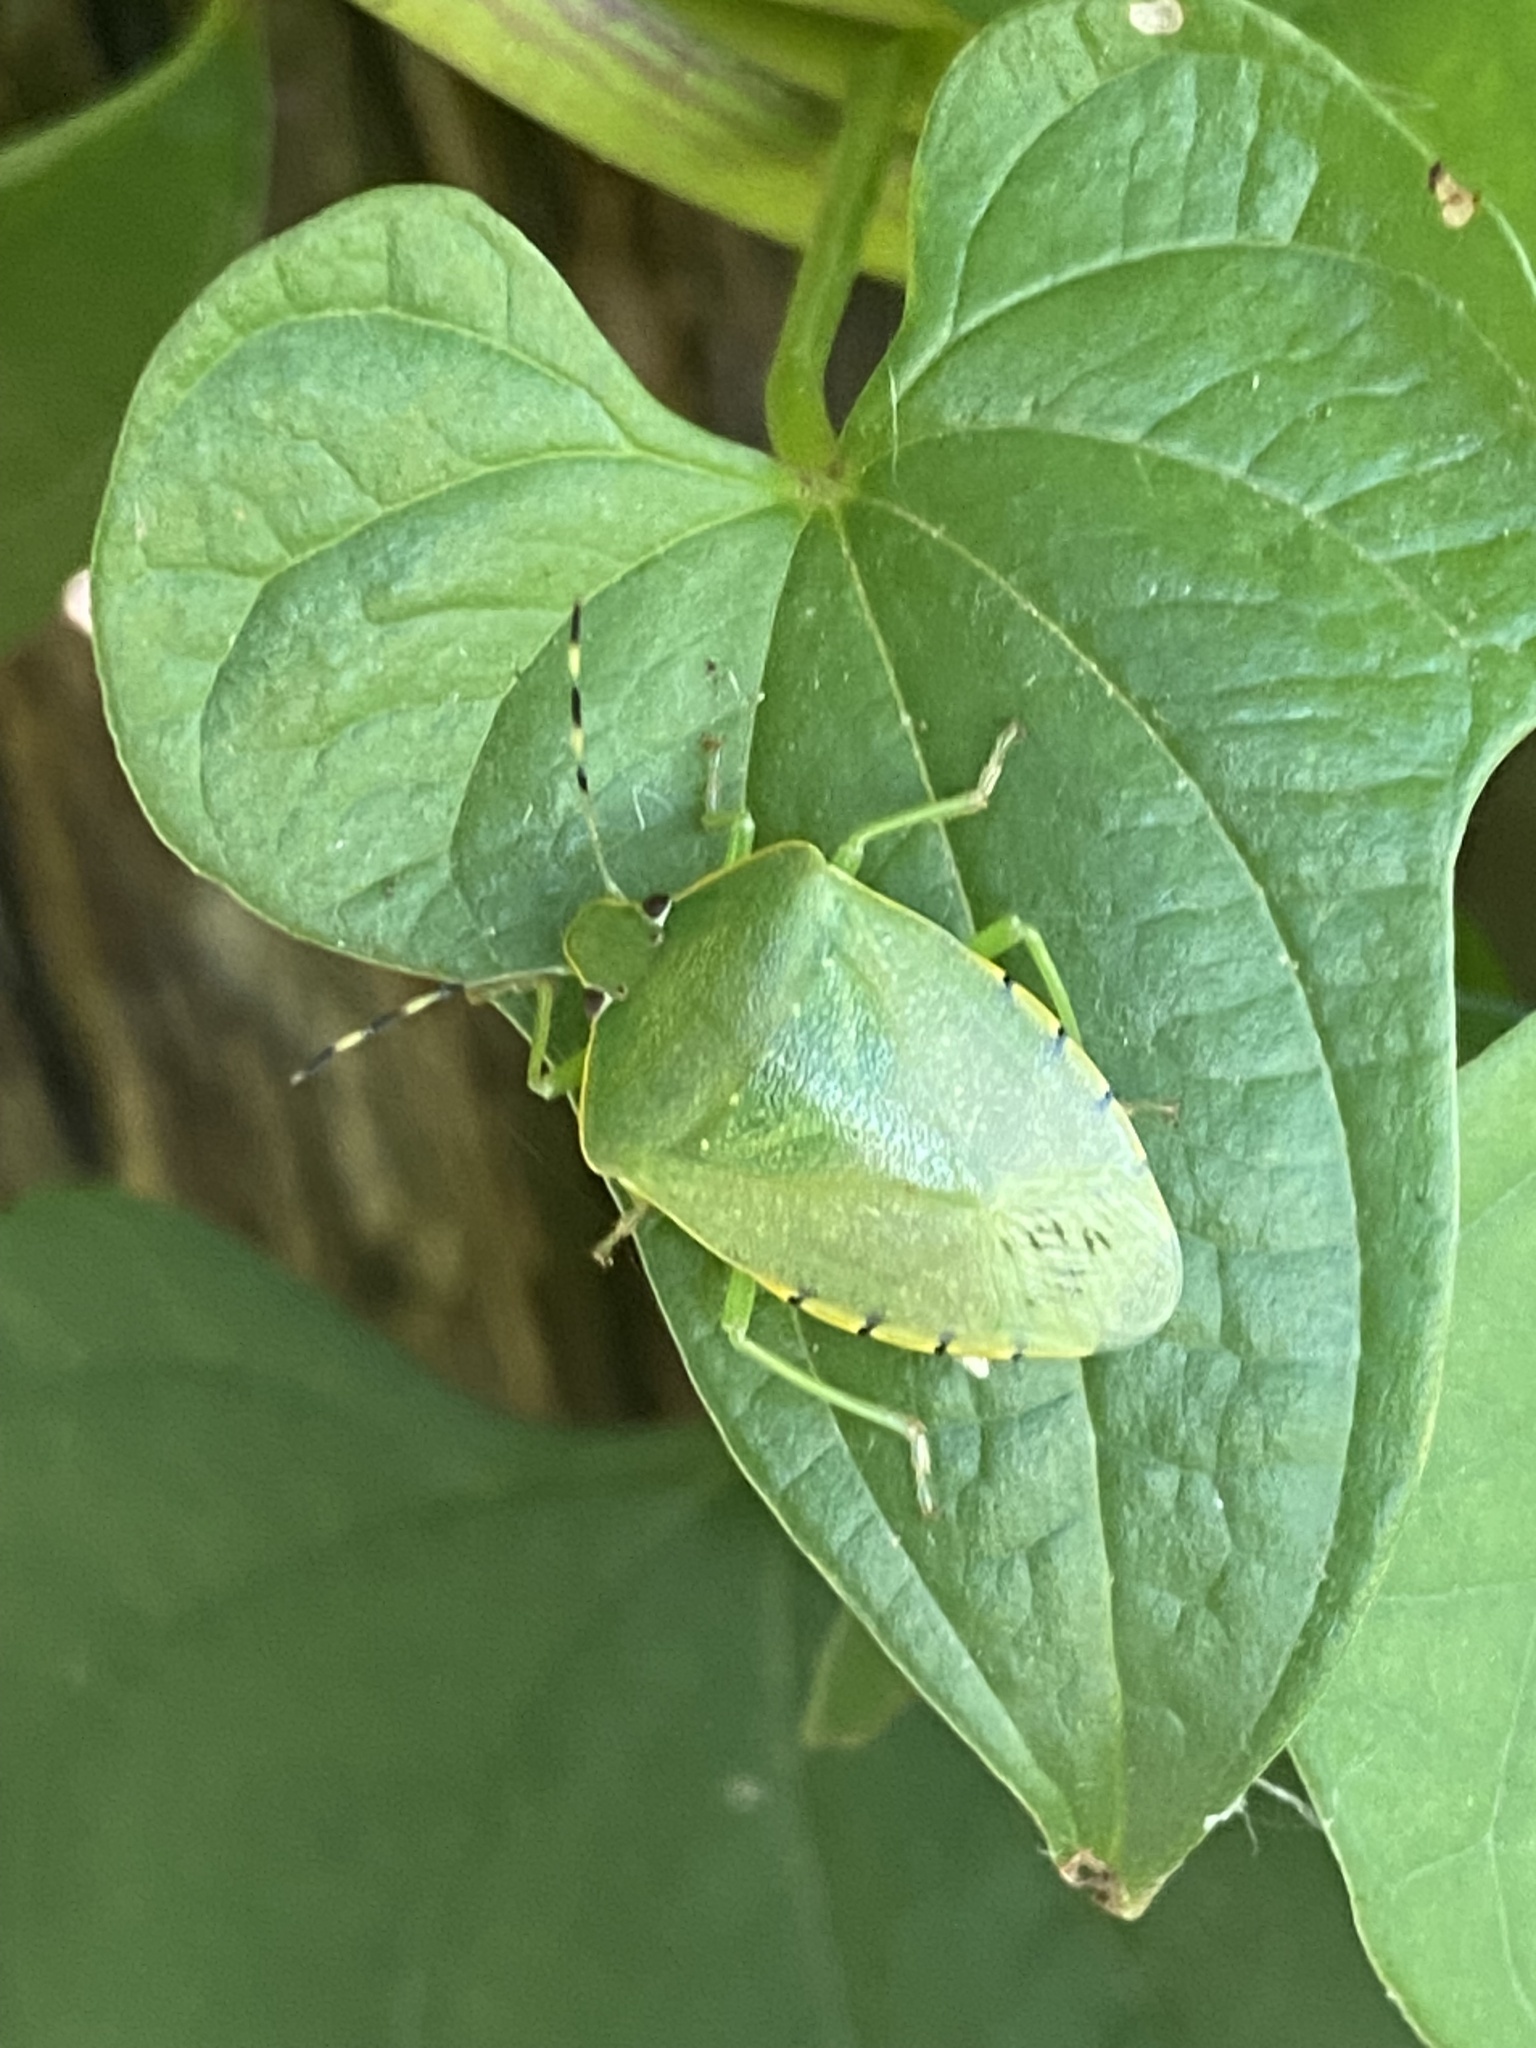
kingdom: Animalia
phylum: Arthropoda
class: Insecta
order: Hemiptera
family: Pentatomidae
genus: Chinavia
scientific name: Chinavia hilaris
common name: Green stink bug
